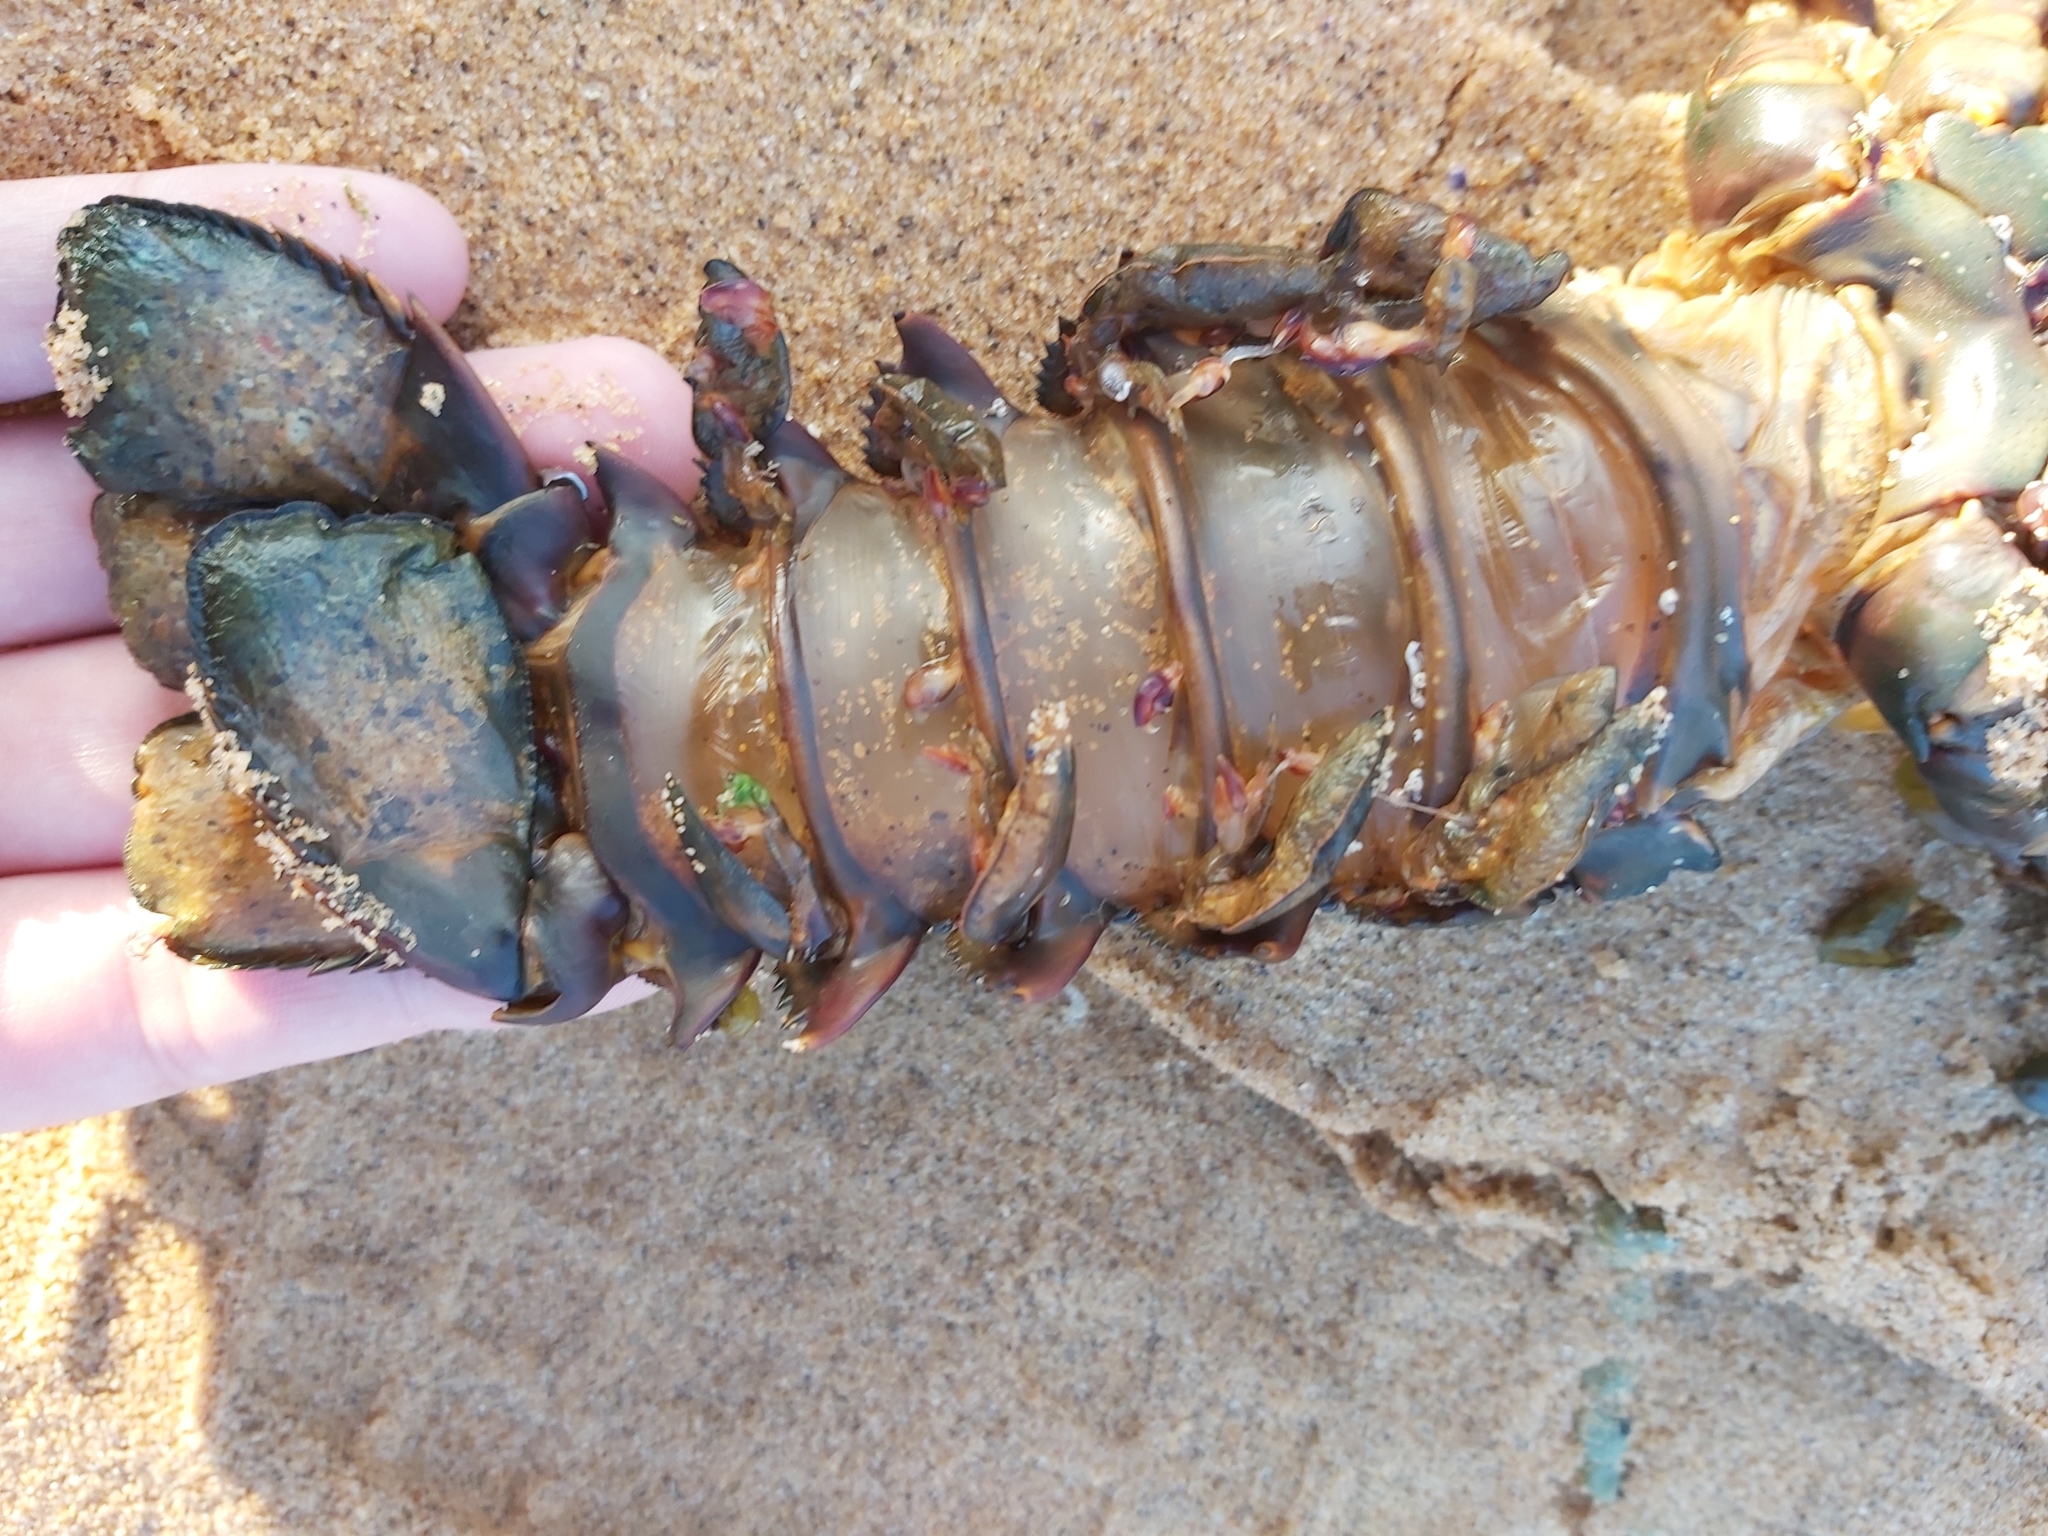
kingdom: Animalia
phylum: Arthropoda
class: Malacostraca
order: Decapoda
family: Palinuridae
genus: Sagmariasus
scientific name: Sagmariasus verreauxi
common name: Green rock lobster
